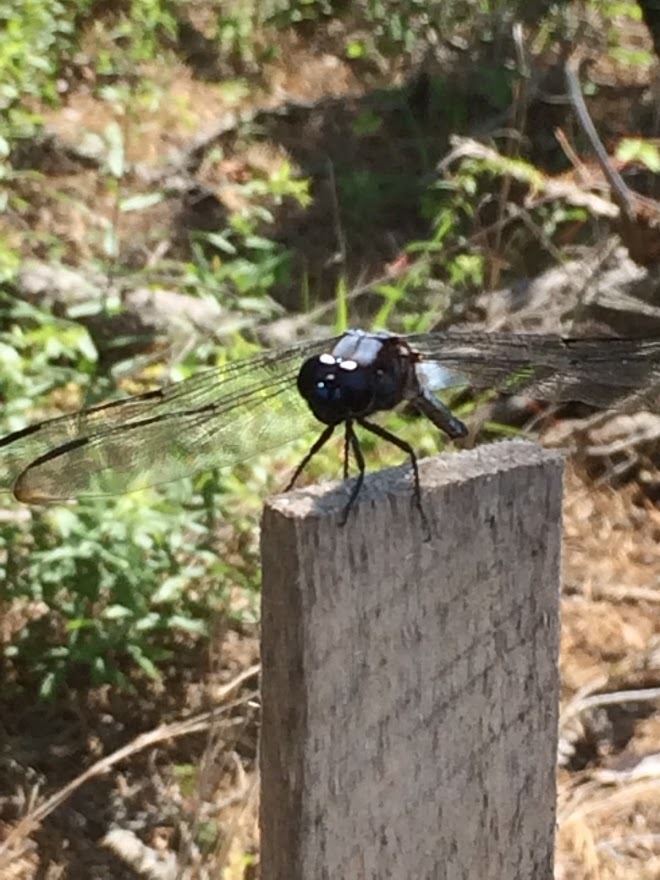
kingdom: Animalia
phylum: Arthropoda
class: Insecta
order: Odonata
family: Libellulidae
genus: Libellula
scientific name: Libellula axilena
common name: Bar-winged skimmer
